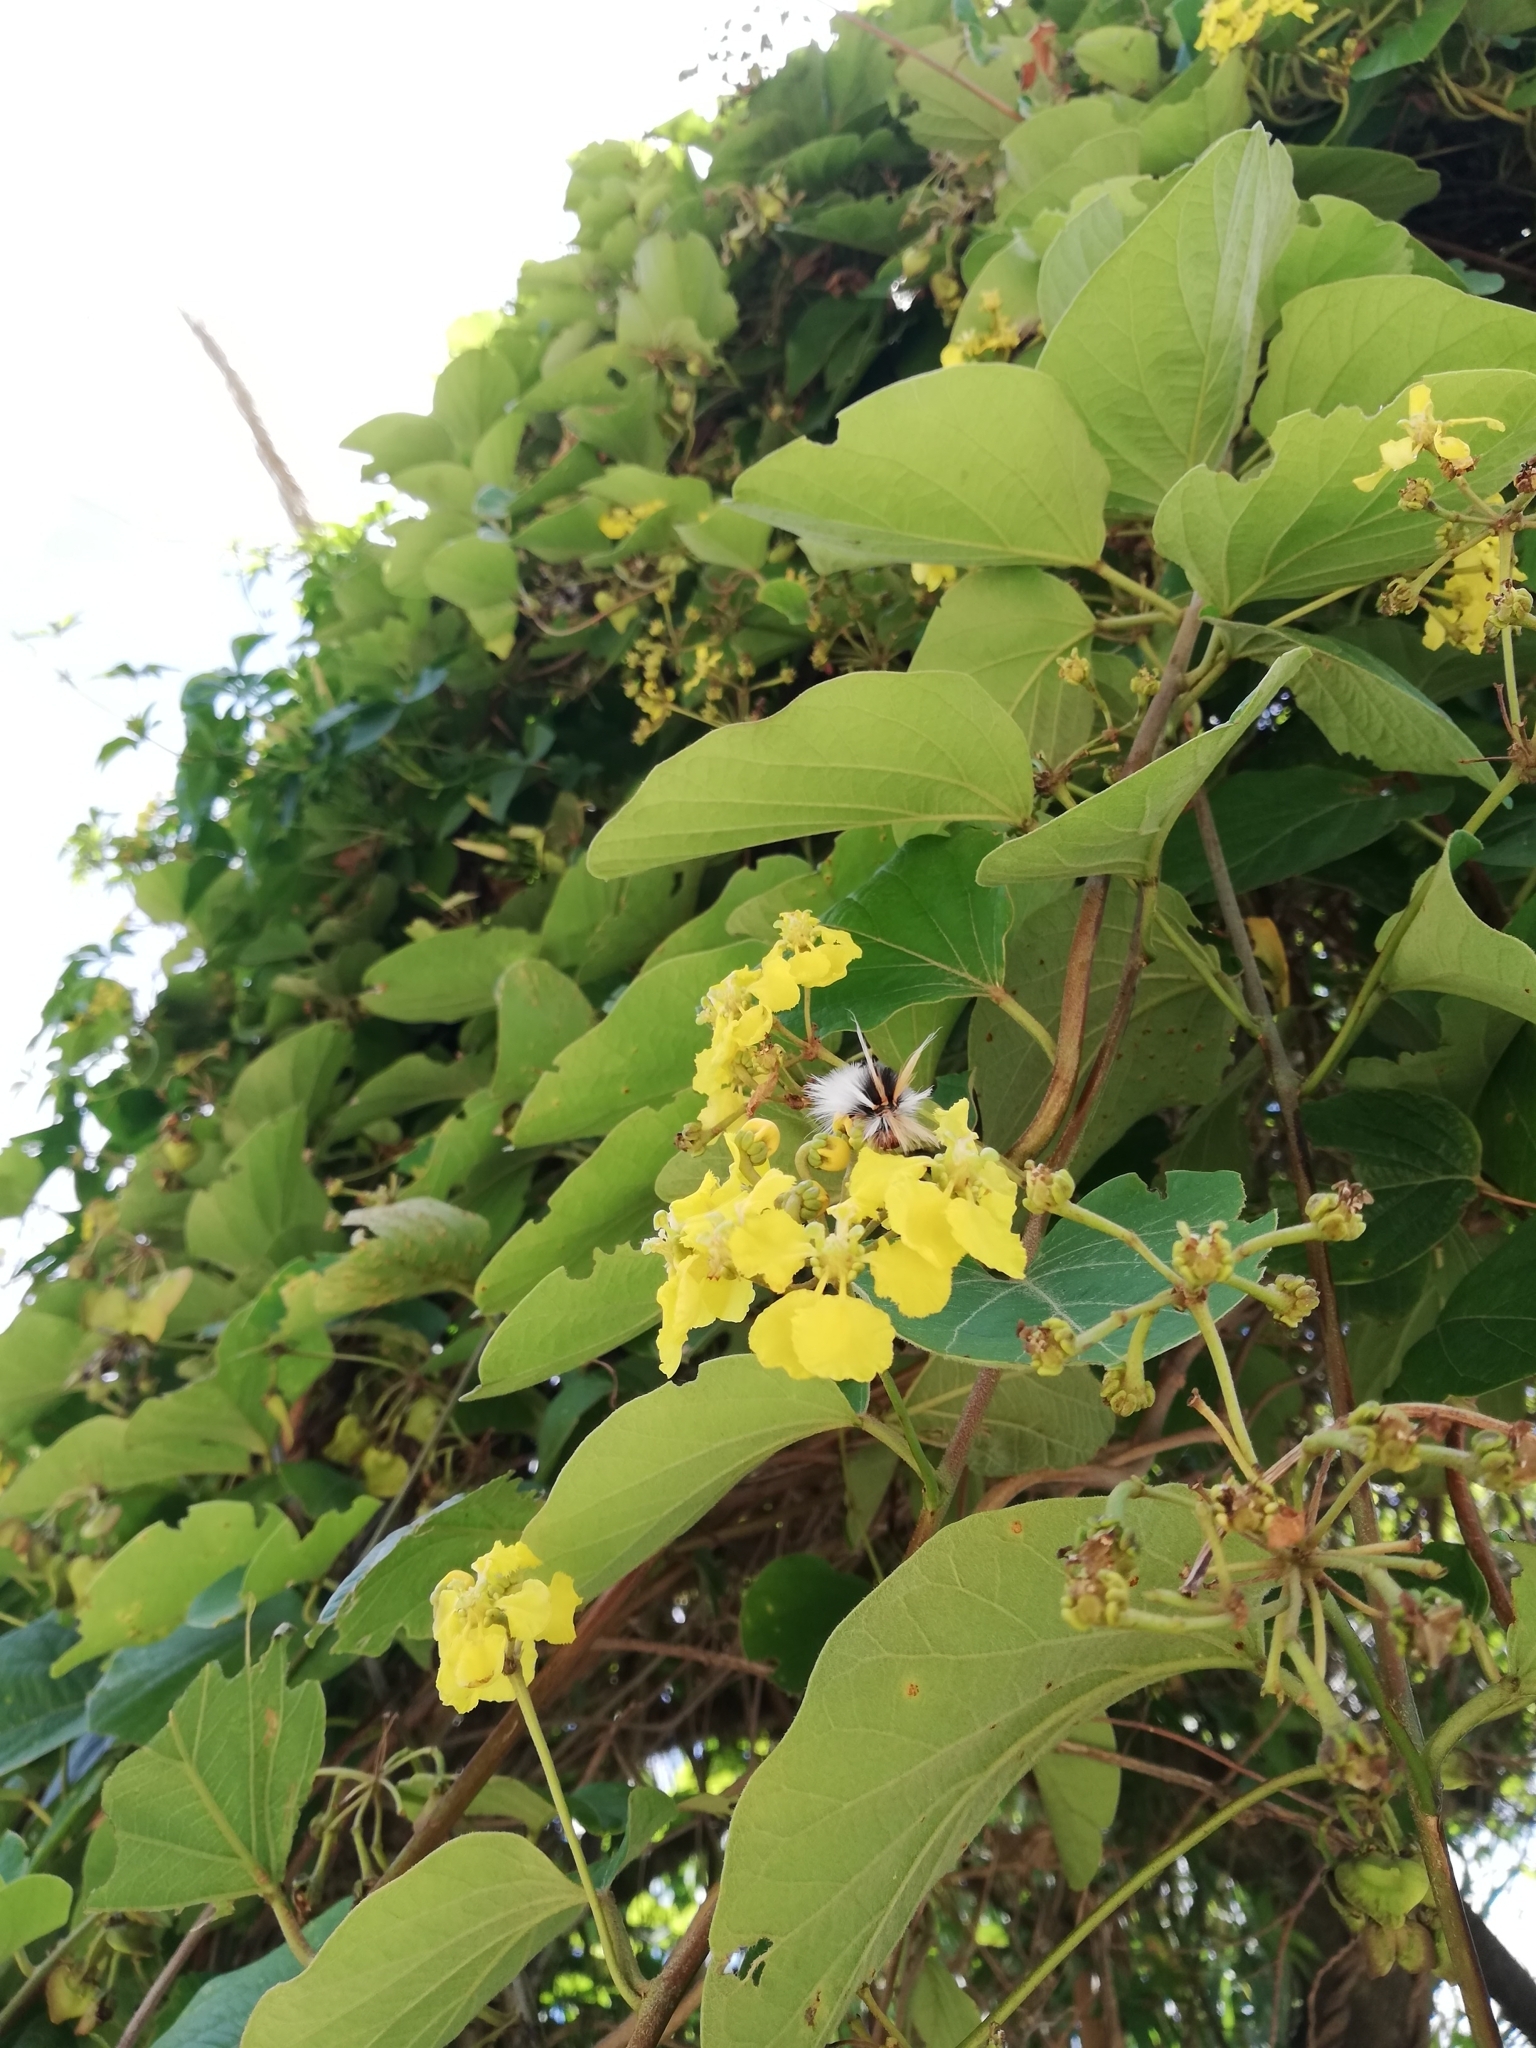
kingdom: Plantae
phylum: Tracheophyta
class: Magnoliopsida
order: Malpighiales
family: Malpighiaceae
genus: Stigmaphyllon
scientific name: Stigmaphyllon bonariense
